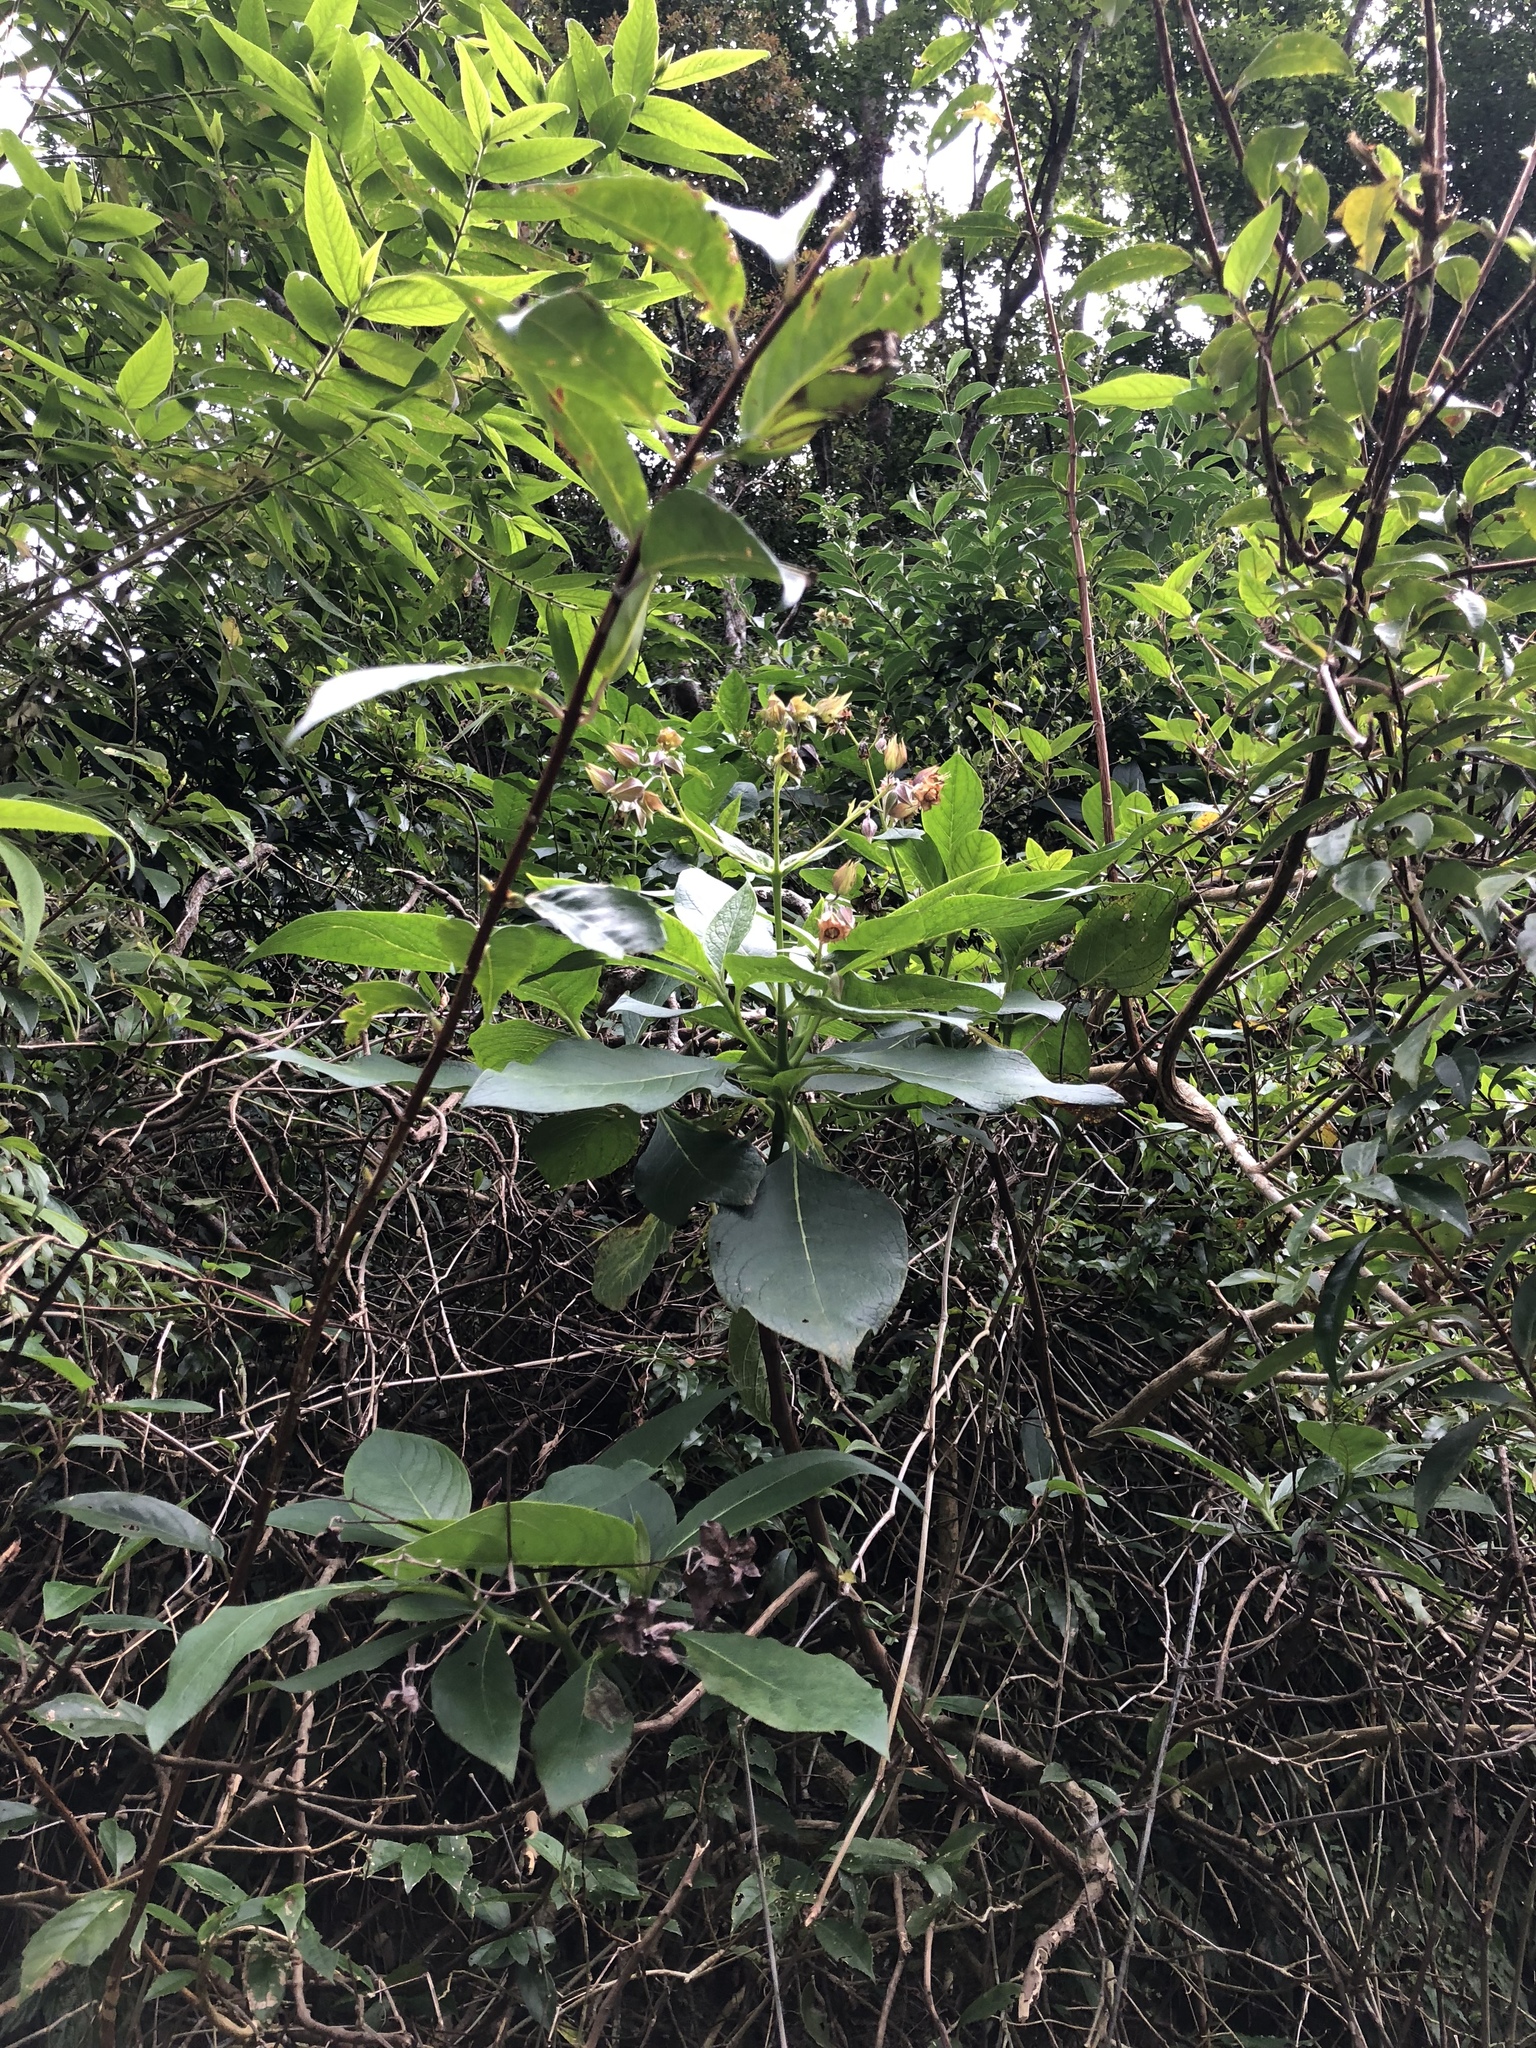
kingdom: Plantae
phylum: Tracheophyta
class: Magnoliopsida
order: Boraginales
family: Boraginaceae
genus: Trichodesma
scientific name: Trichodesma calycosum
